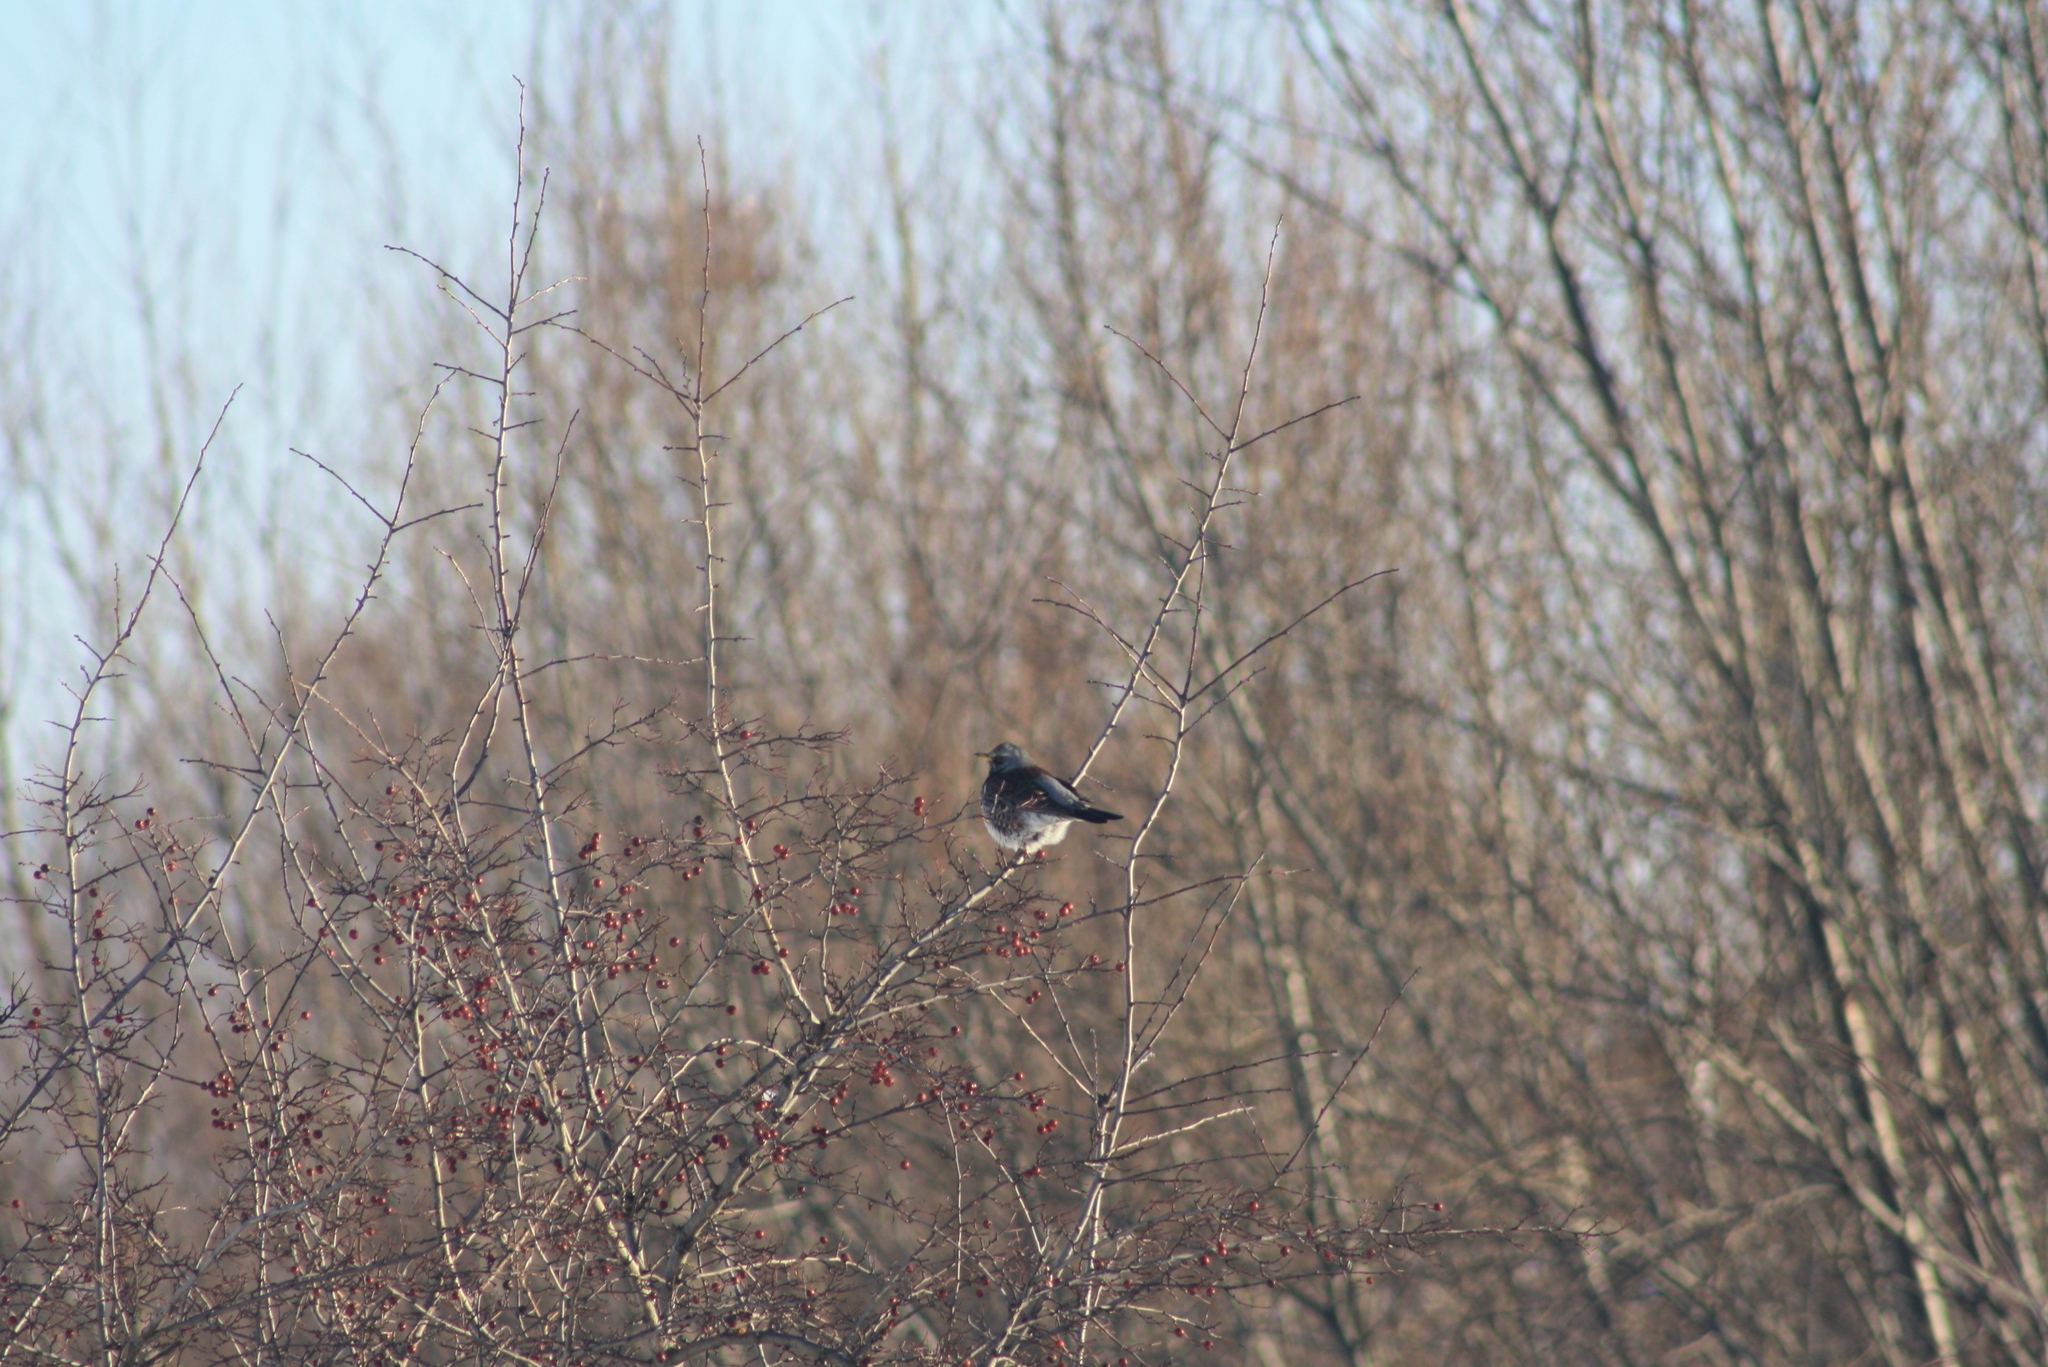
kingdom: Animalia
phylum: Chordata
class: Aves
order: Passeriformes
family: Turdidae
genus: Turdus
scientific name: Turdus pilaris
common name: Fieldfare
